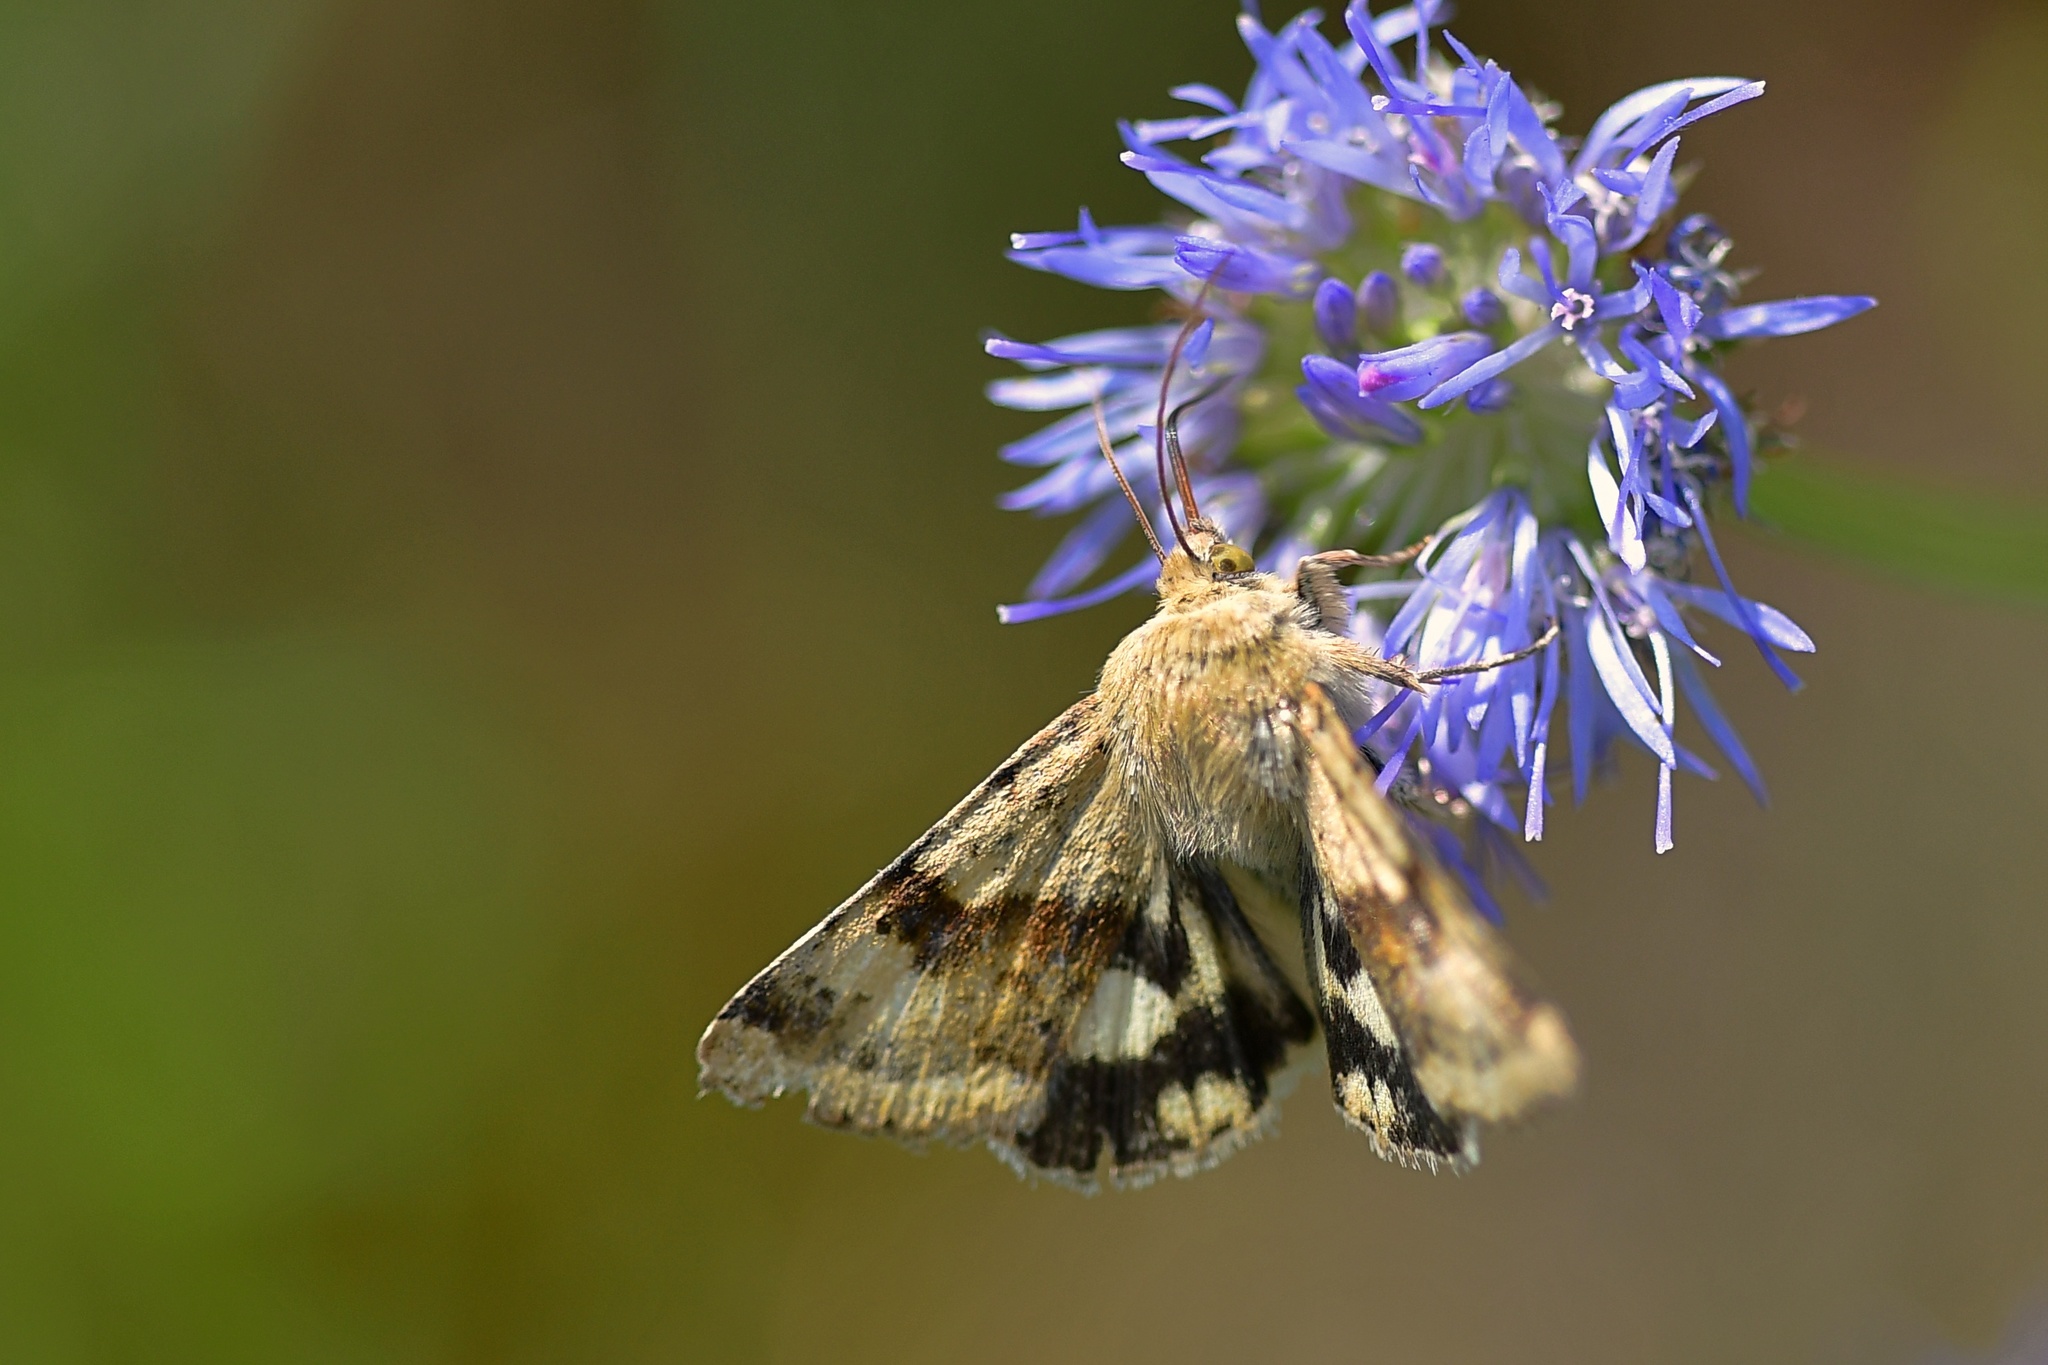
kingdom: Animalia
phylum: Arthropoda
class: Insecta
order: Lepidoptera
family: Noctuidae
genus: Heliothis
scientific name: Heliothis viriplaca
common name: Marbled clover
